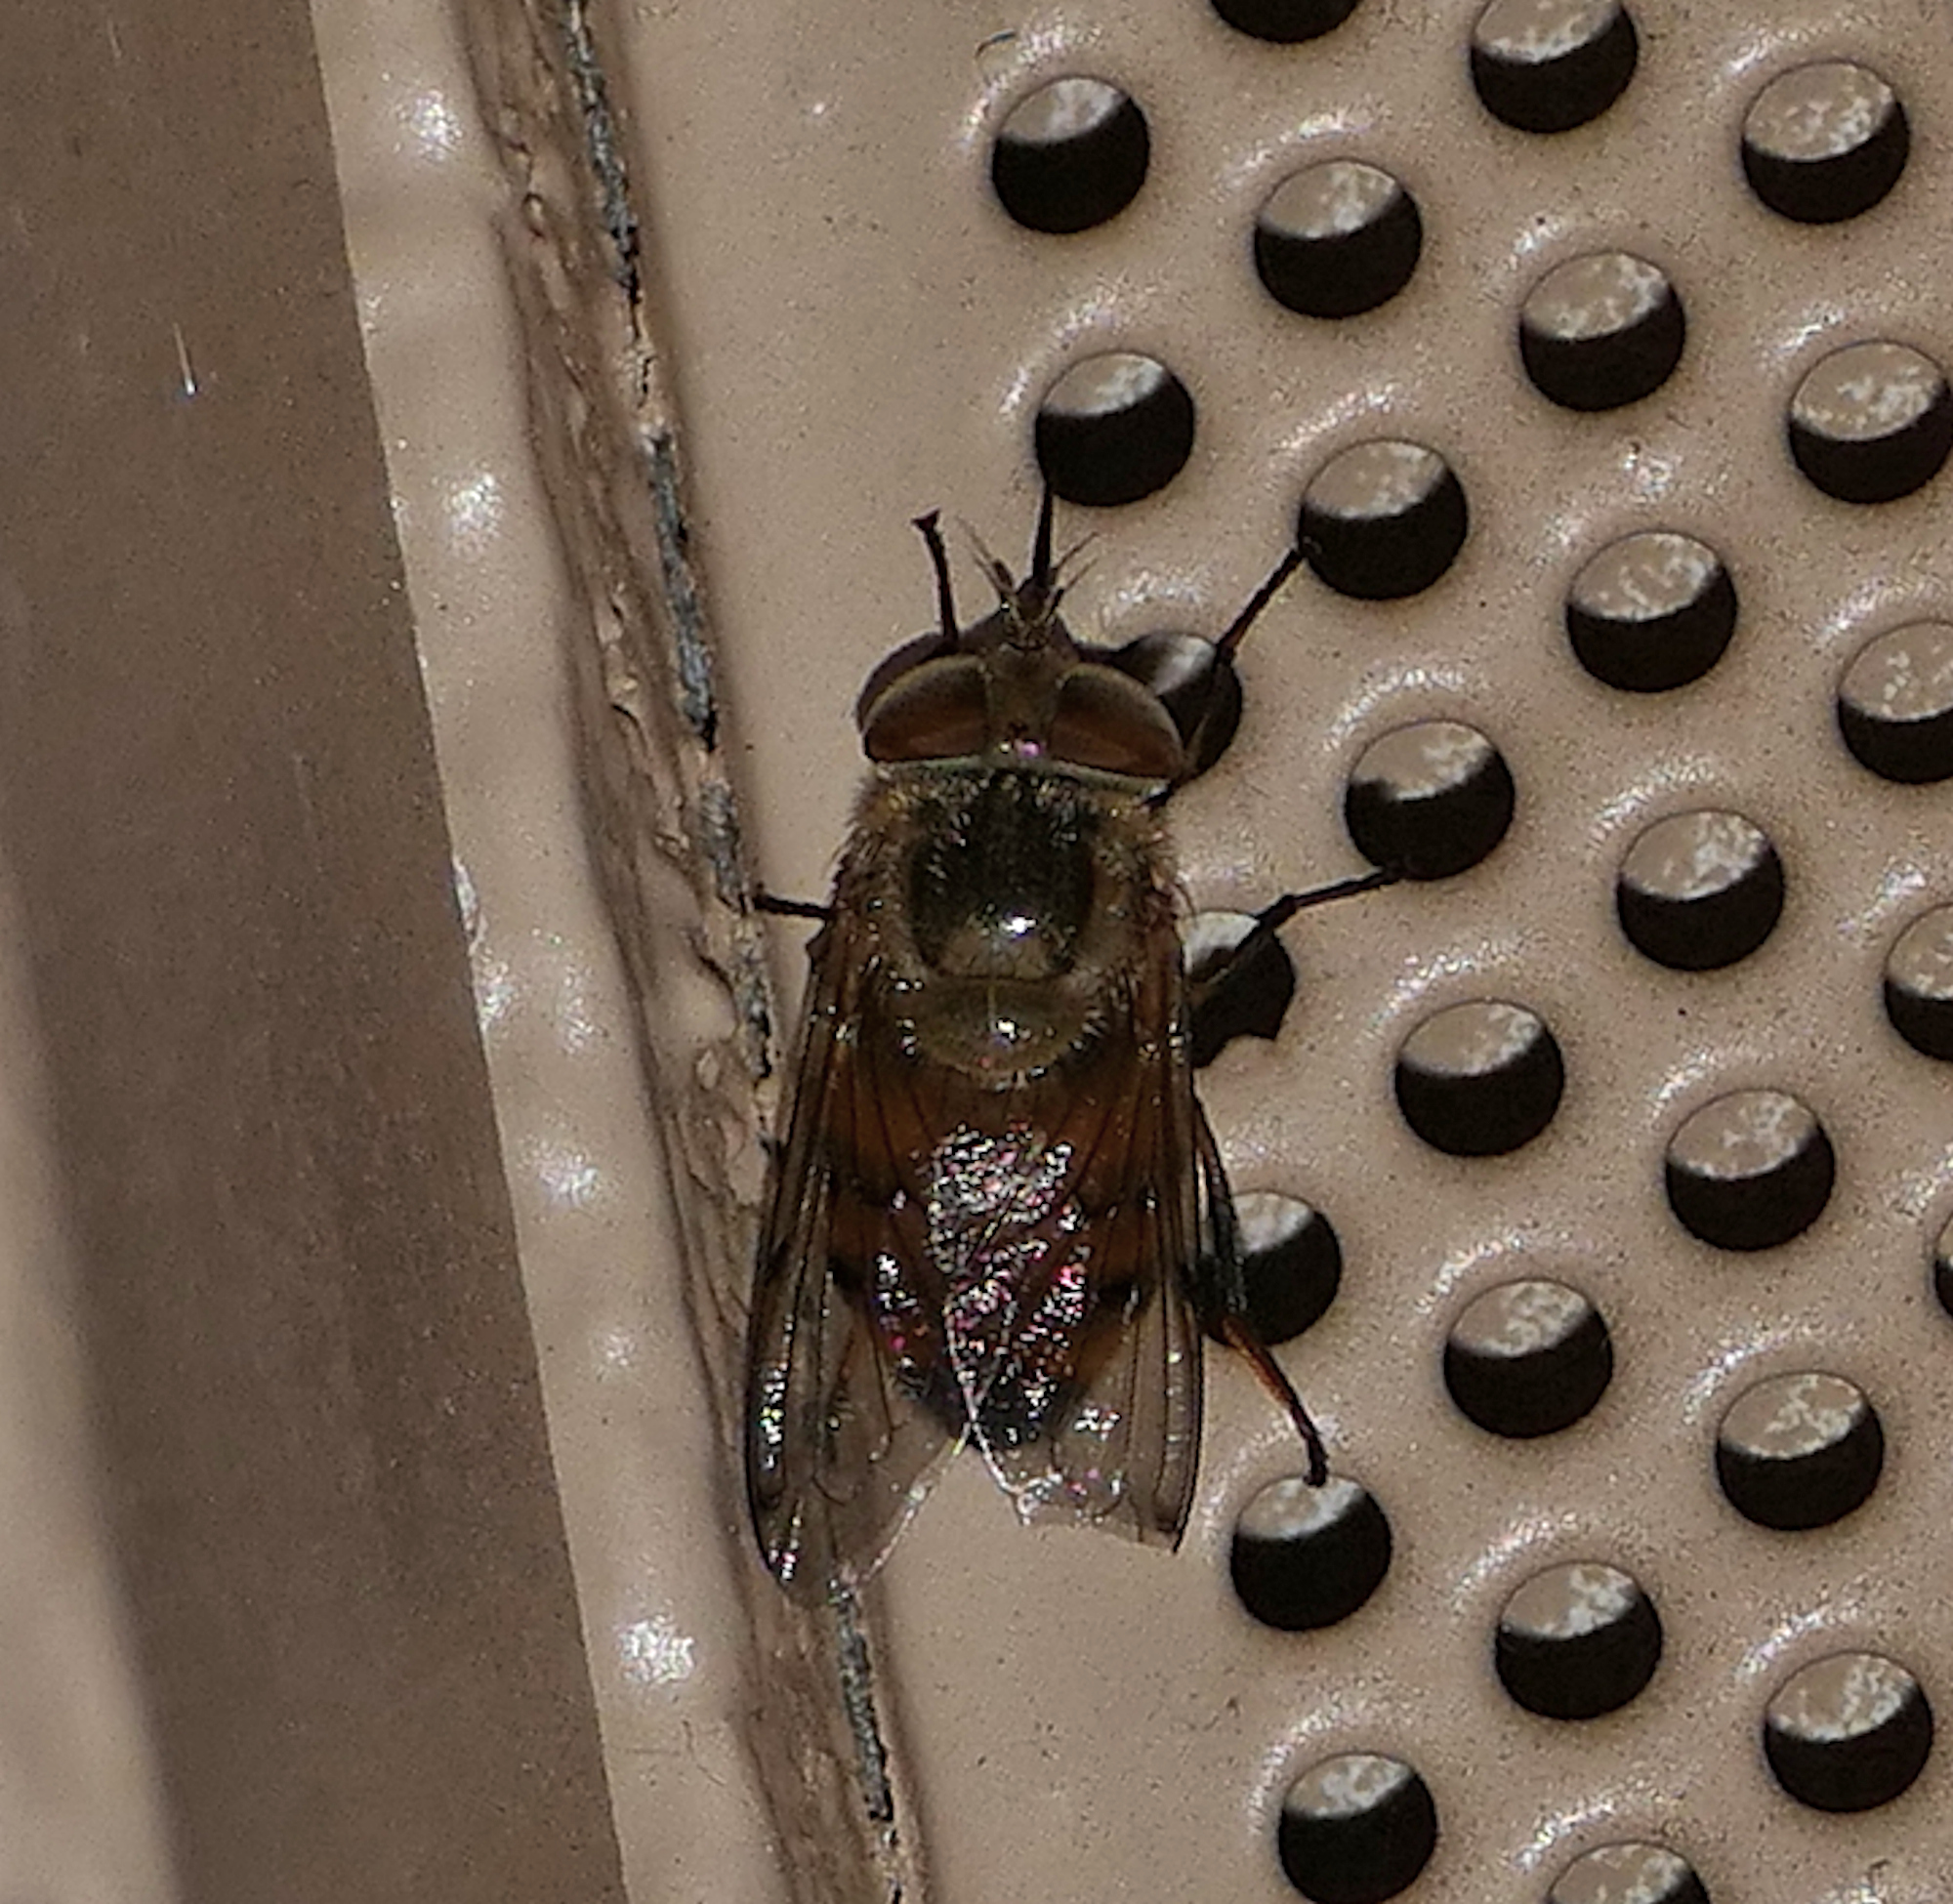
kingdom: Animalia
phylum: Arthropoda
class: Insecta
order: Diptera
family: Syrphidae
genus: Copestylum
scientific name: Copestylum haagii
